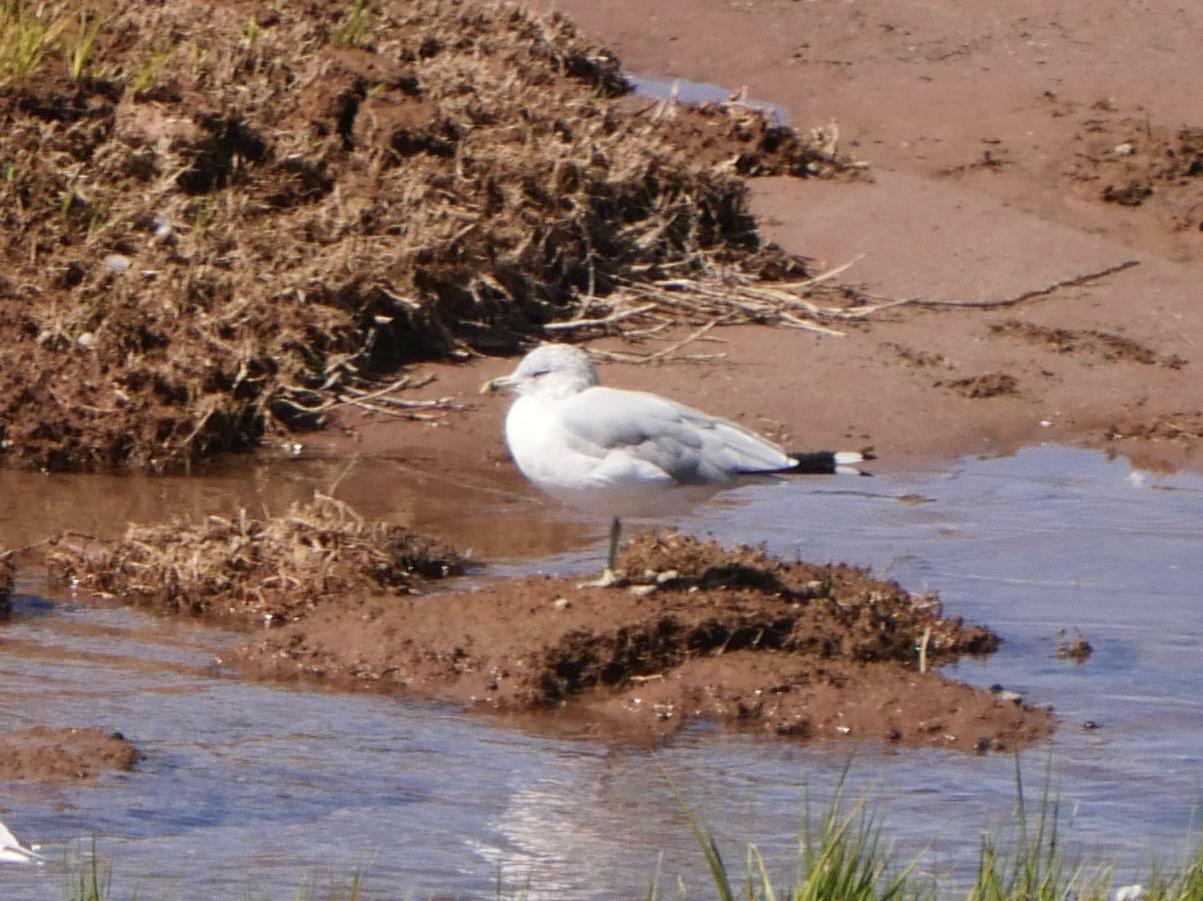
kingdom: Animalia
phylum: Chordata
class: Aves
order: Charadriiformes
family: Laridae
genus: Larus
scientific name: Larus delawarensis
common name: Ring-billed gull
